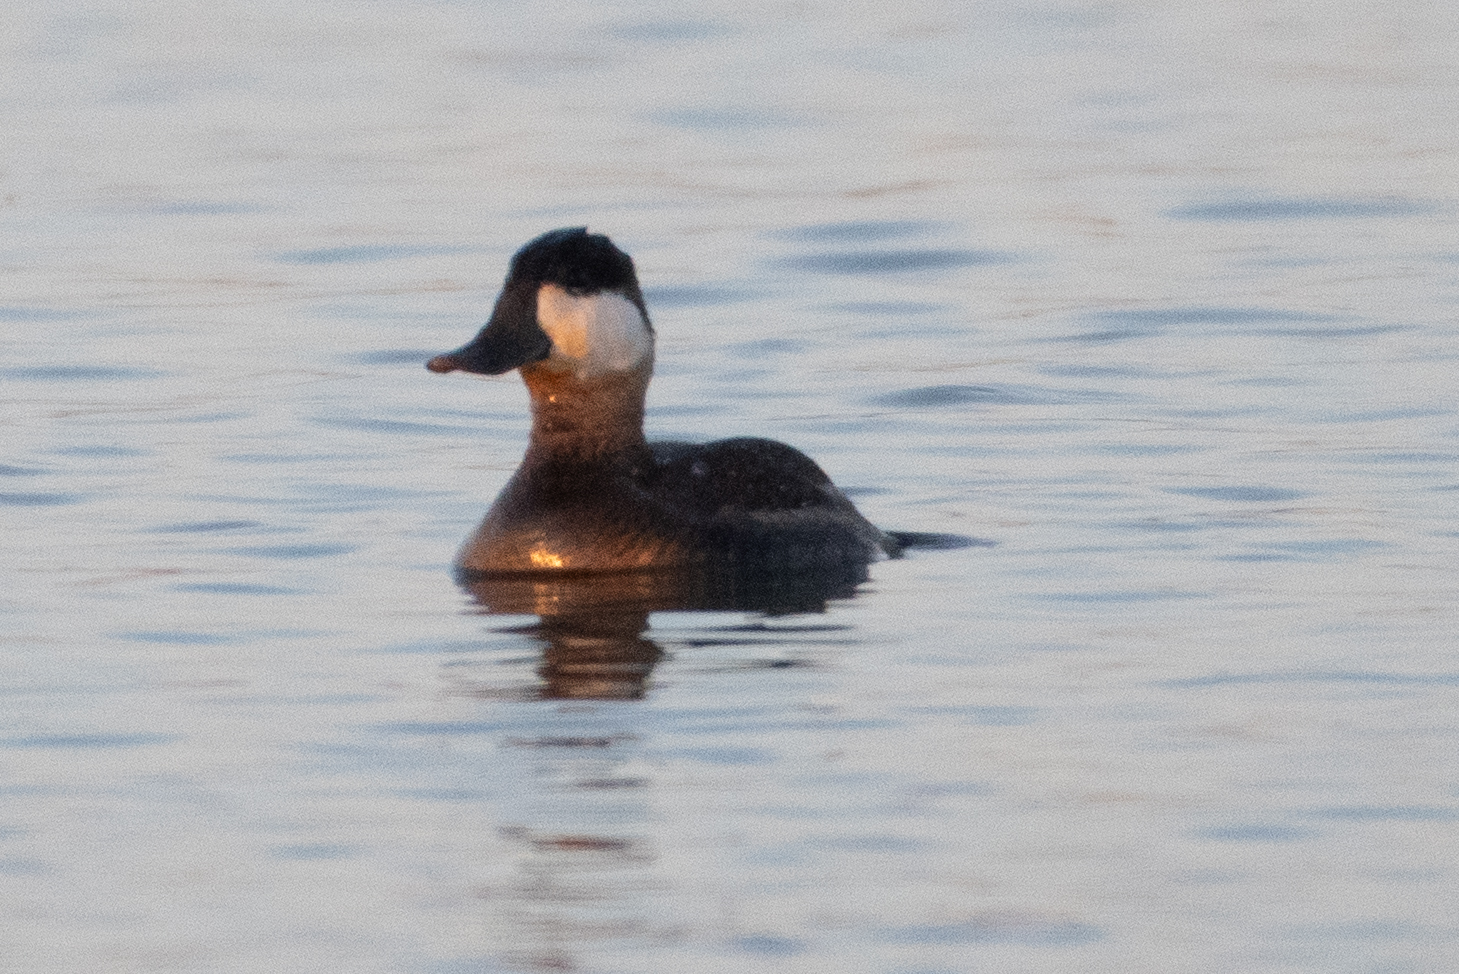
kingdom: Animalia
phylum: Chordata
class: Aves
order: Anseriformes
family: Anatidae
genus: Oxyura
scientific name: Oxyura jamaicensis
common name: Ruddy duck
